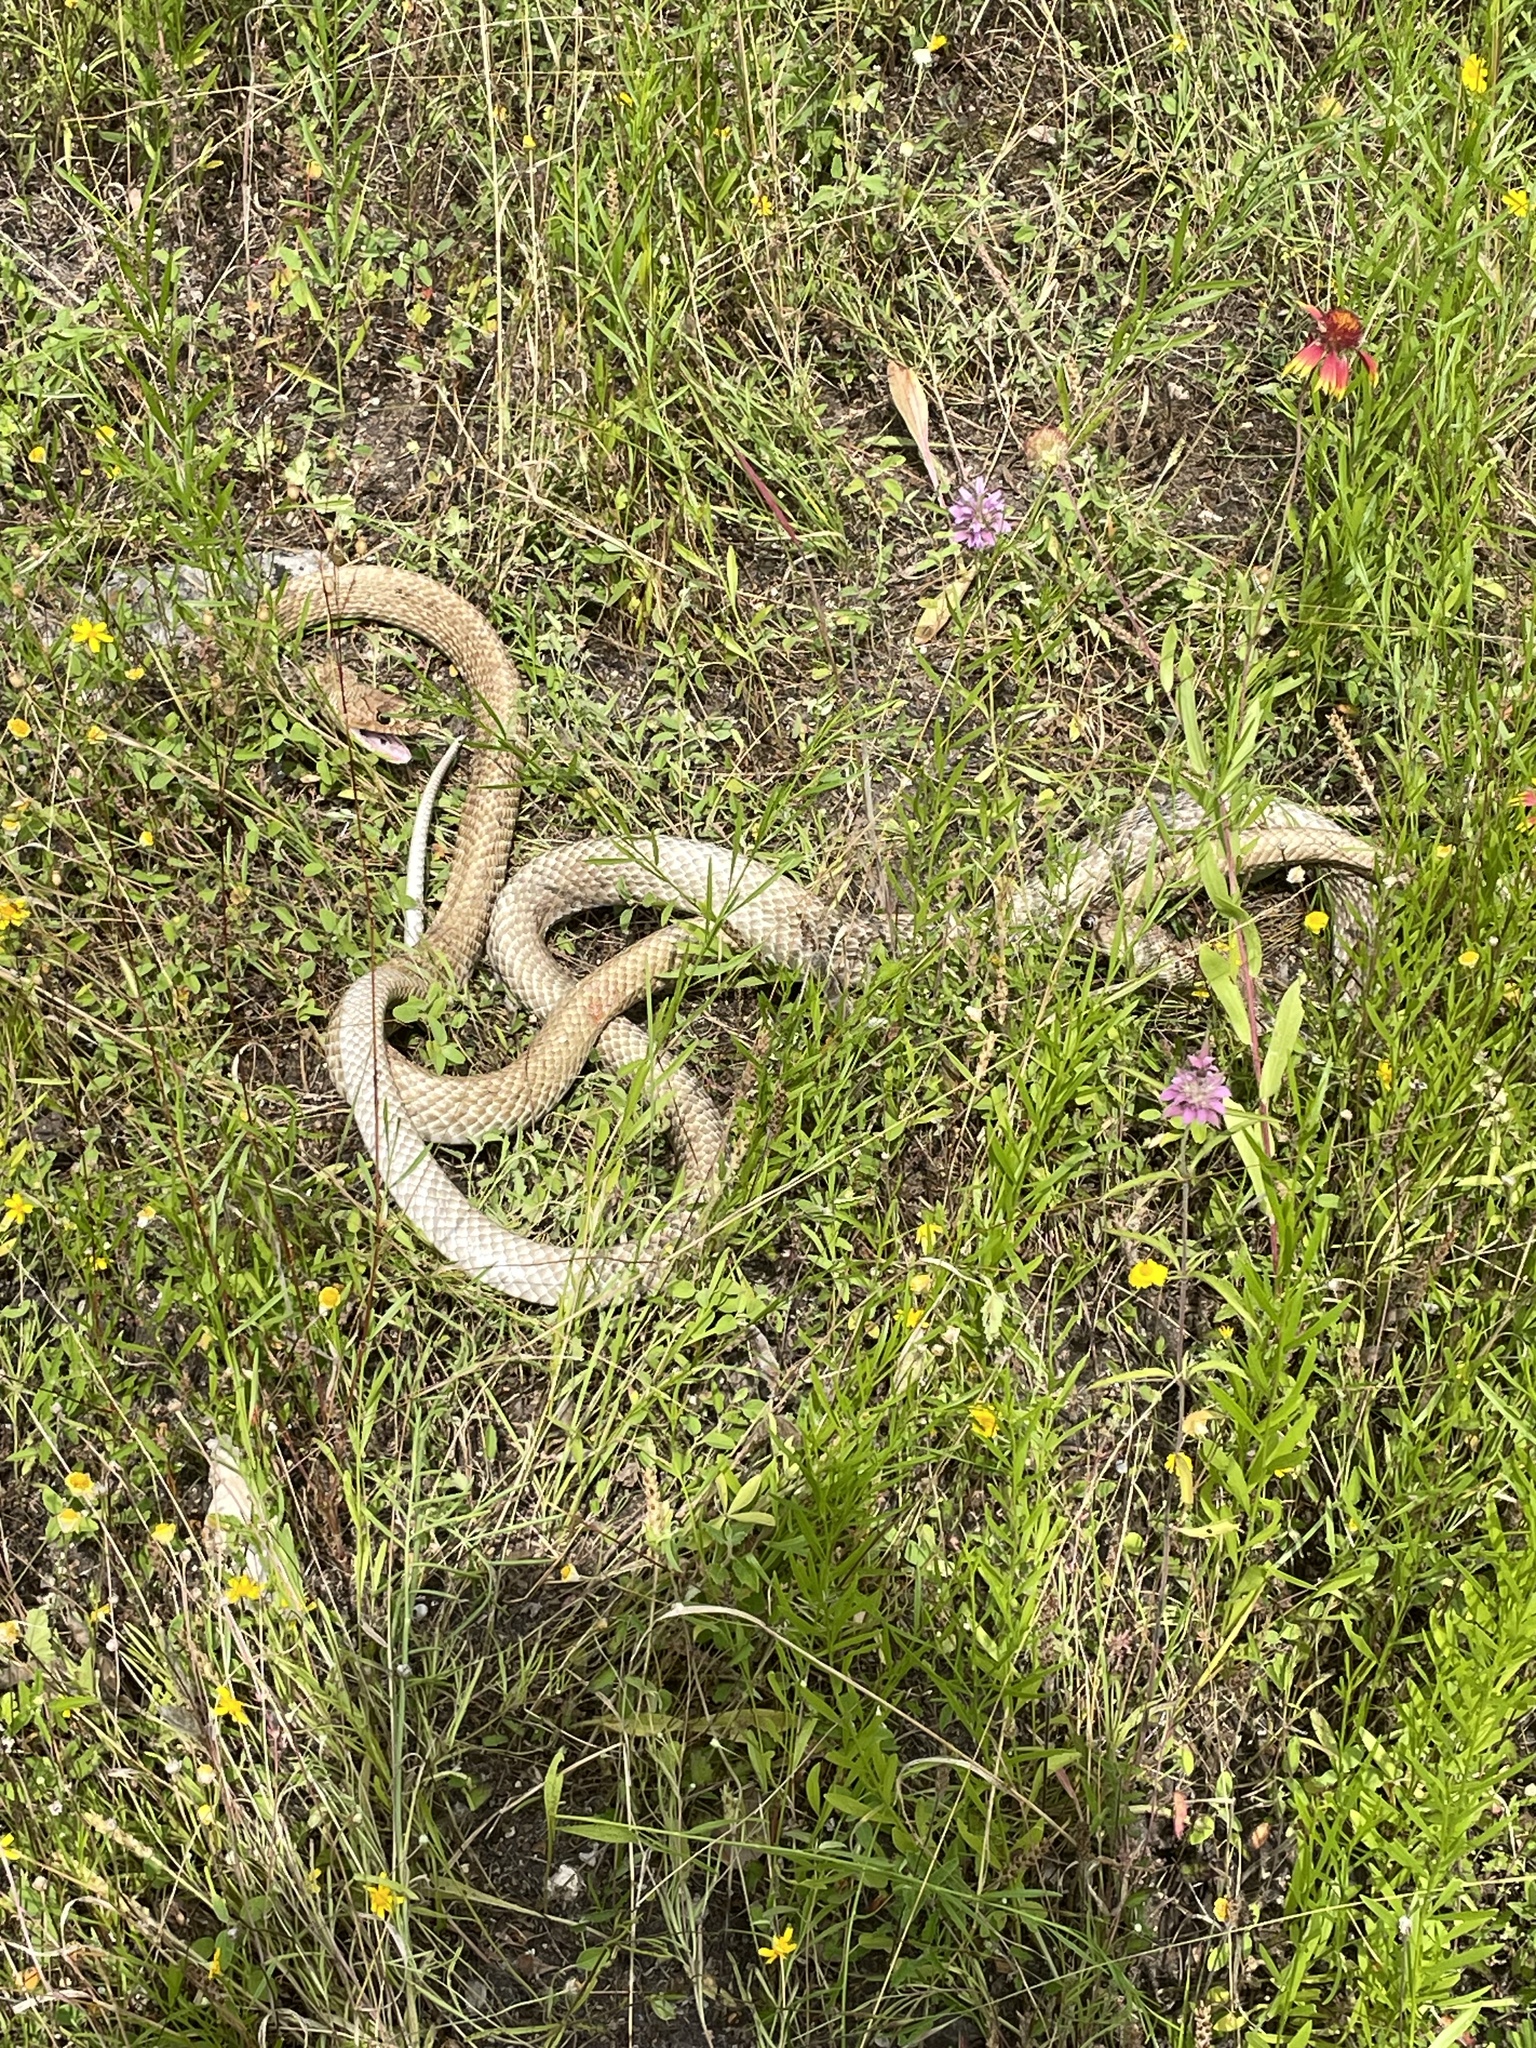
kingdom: Animalia
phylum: Chordata
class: Squamata
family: Colubridae
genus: Masticophis
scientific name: Masticophis flagellum
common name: Coachwhip
